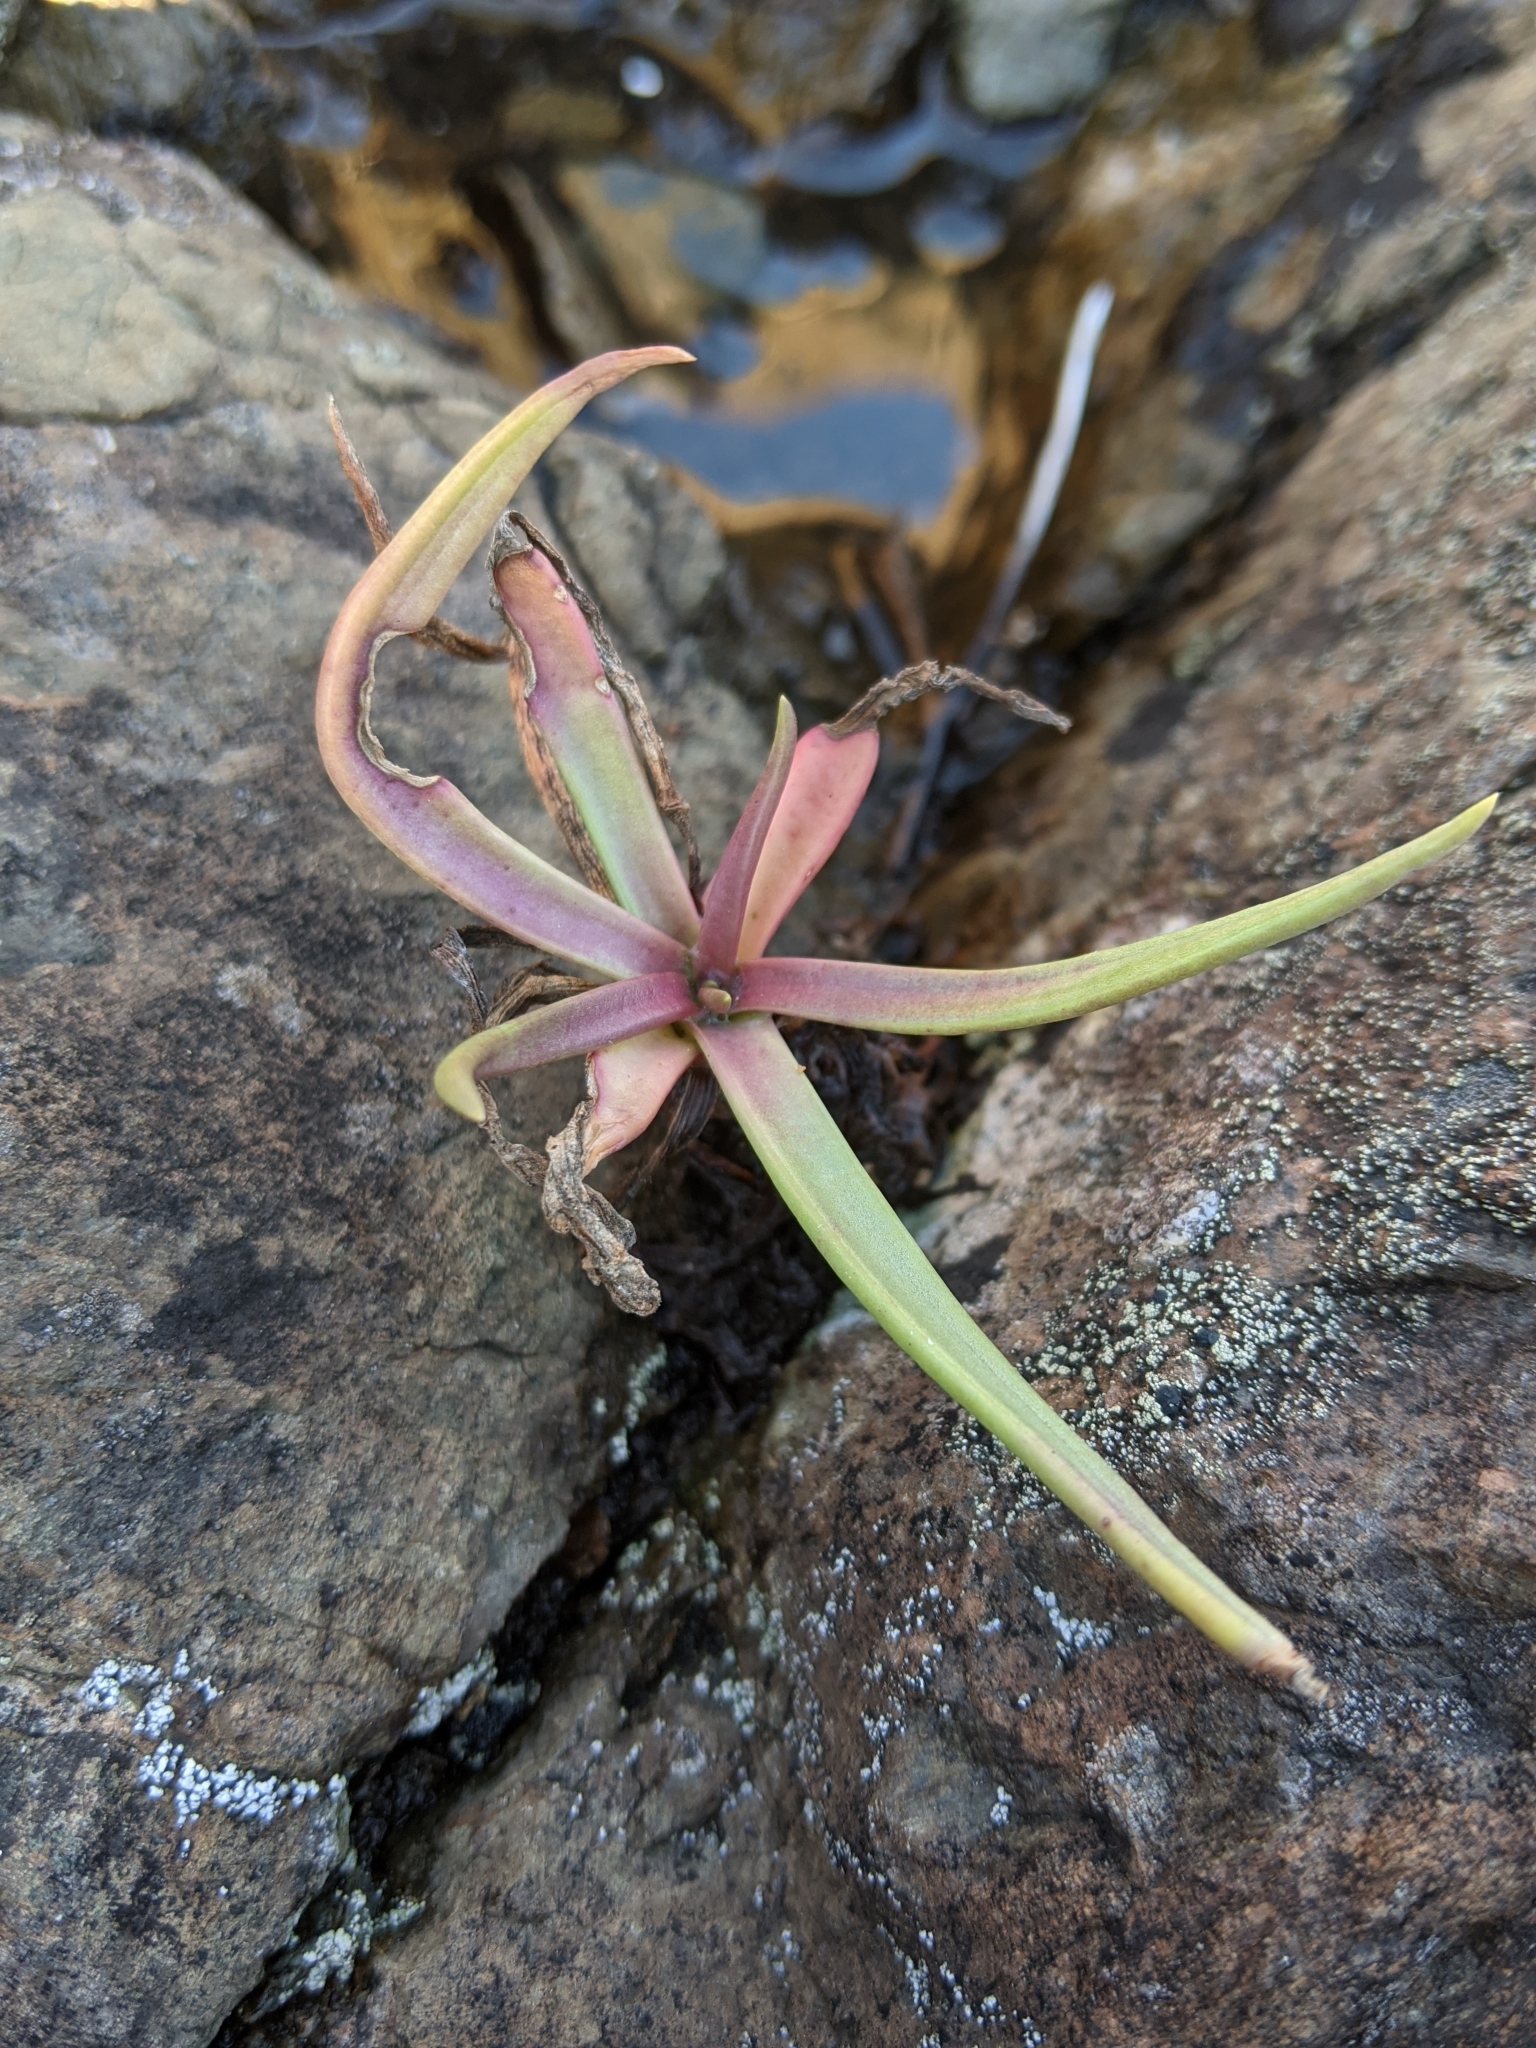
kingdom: Plantae
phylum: Tracheophyta
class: Magnoliopsida
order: Lamiales
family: Plantaginaceae
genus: Plantago
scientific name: Plantago maritima
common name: Sea plantain
